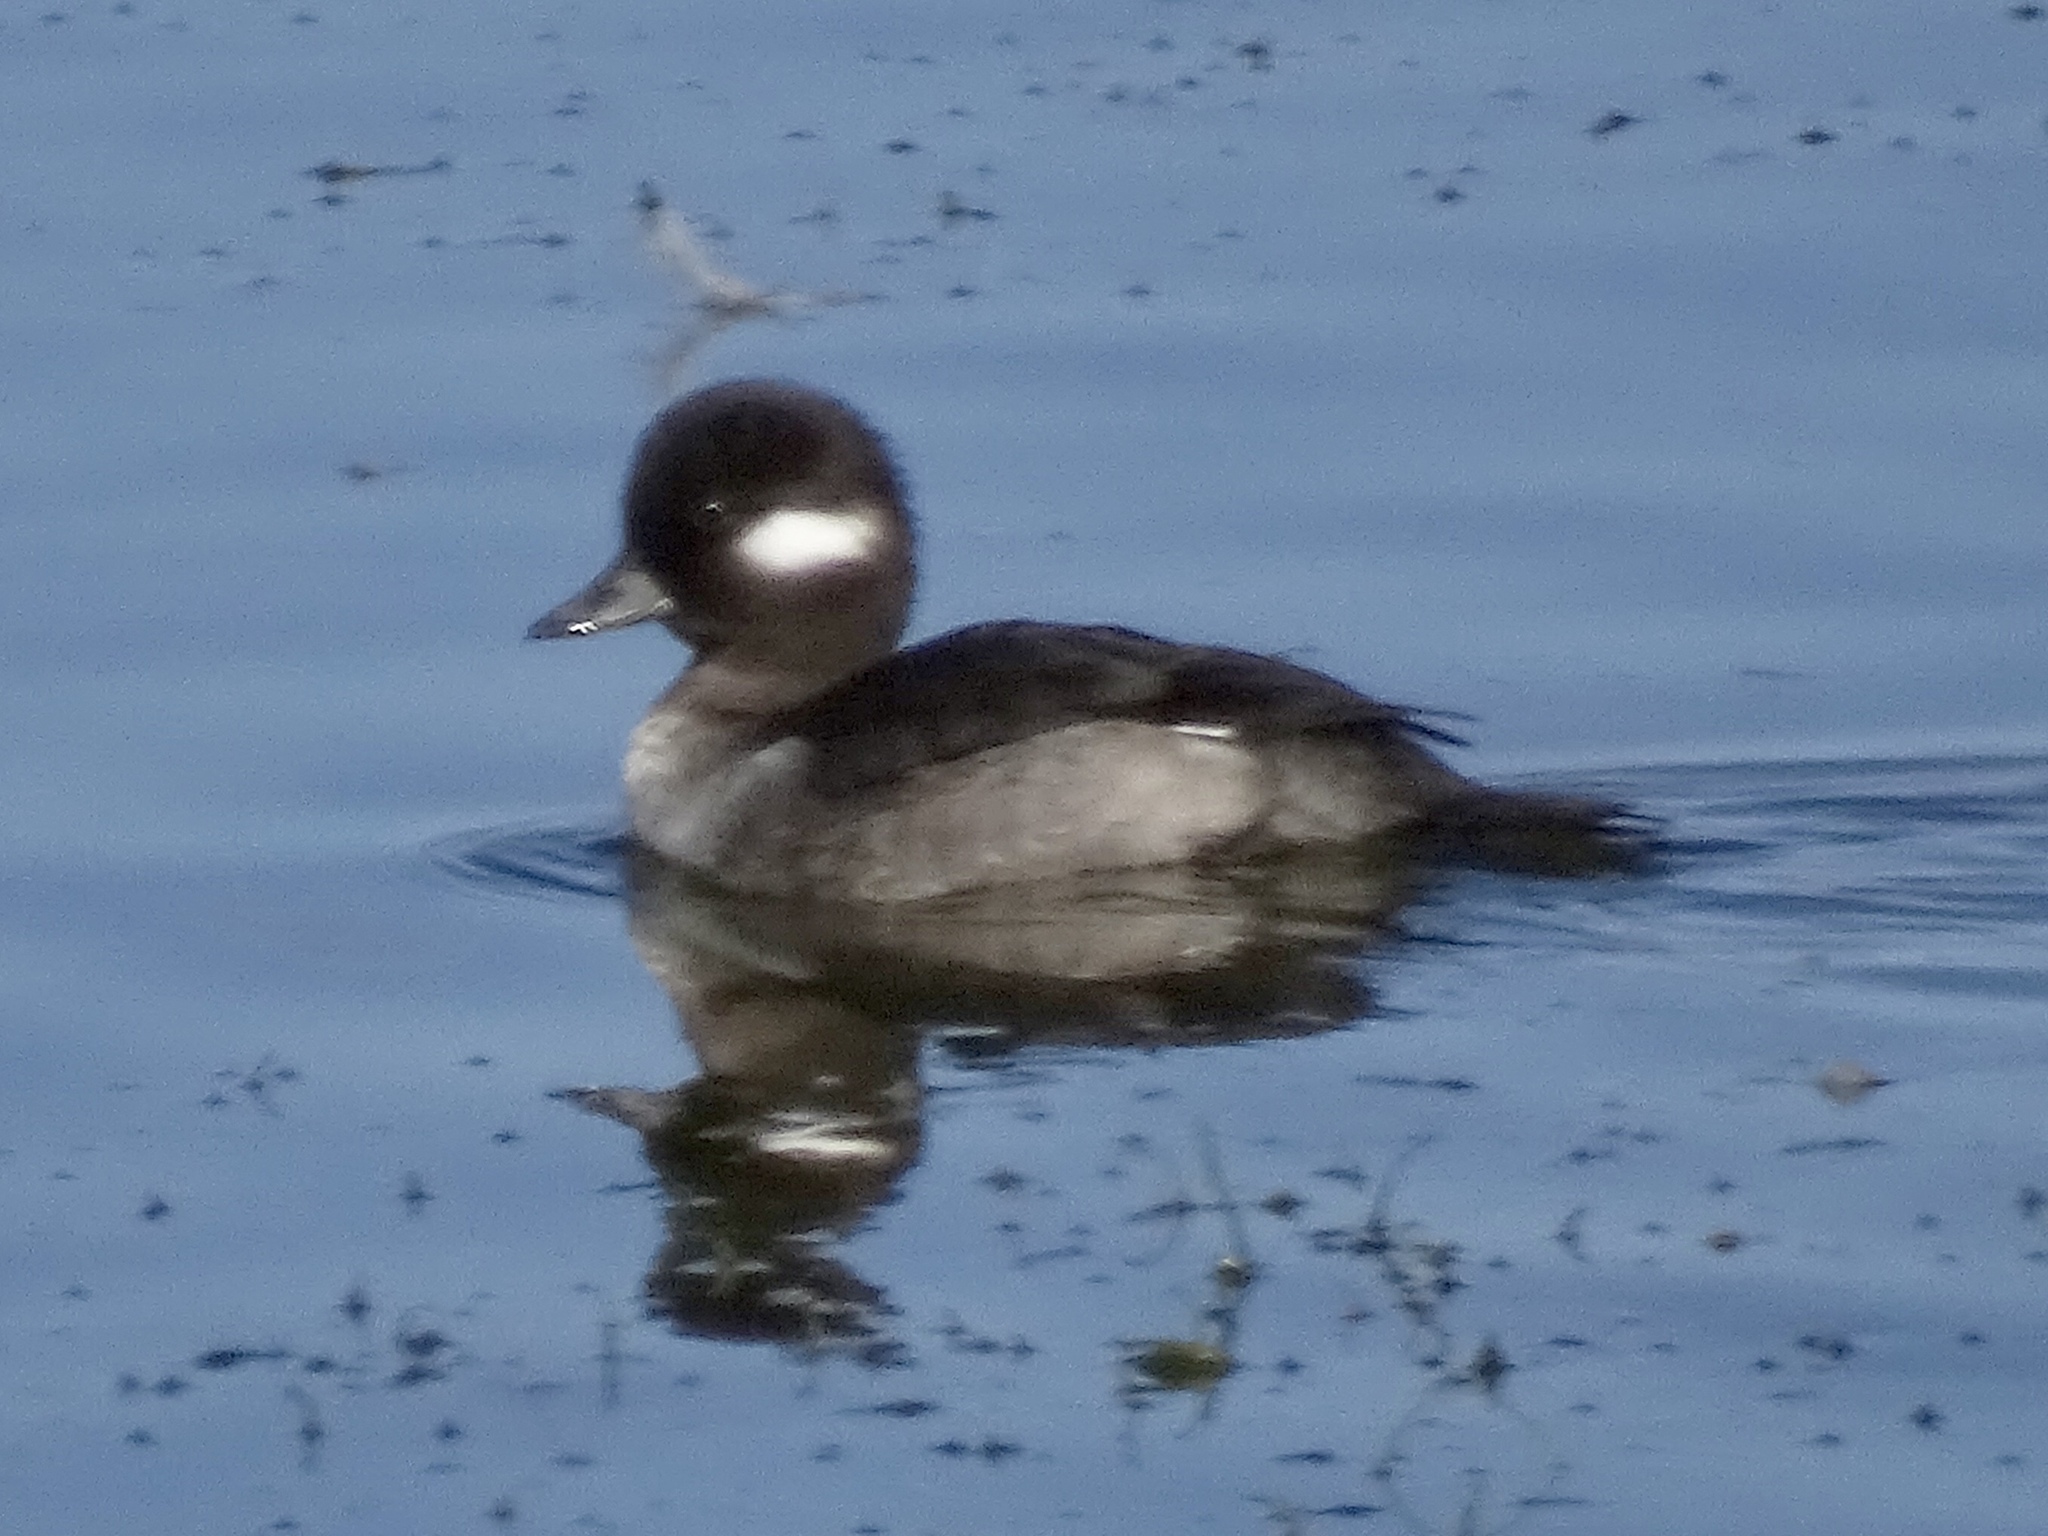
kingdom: Animalia
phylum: Chordata
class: Aves
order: Anseriformes
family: Anatidae
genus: Bucephala
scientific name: Bucephala albeola
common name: Bufflehead
